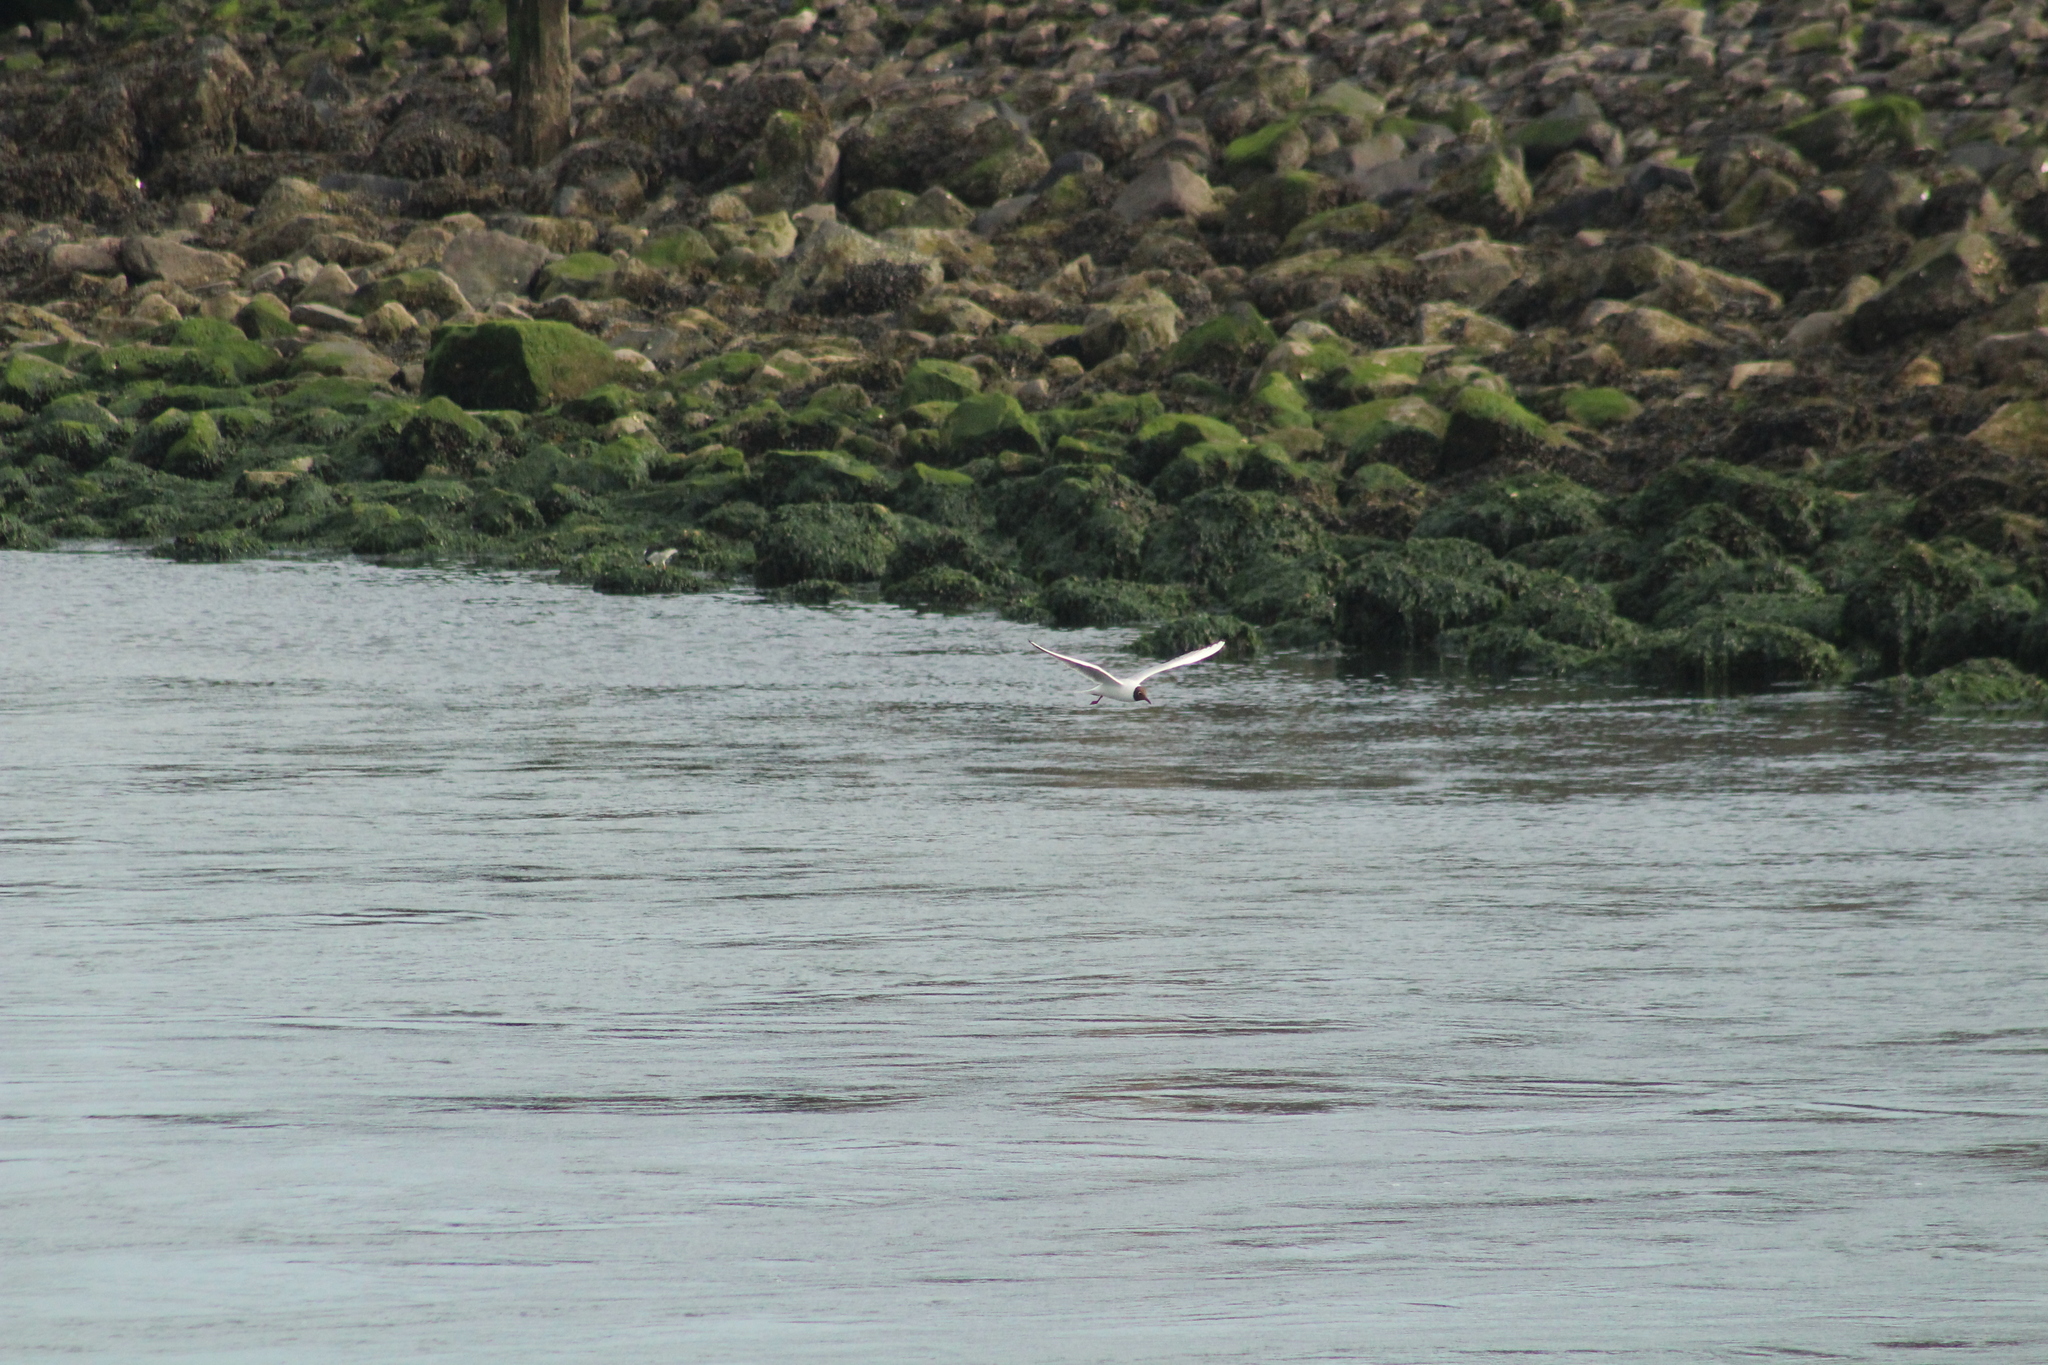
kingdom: Animalia
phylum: Chordata
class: Aves
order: Charadriiformes
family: Laridae
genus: Chroicocephalus
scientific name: Chroicocephalus ridibundus
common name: Black-headed gull
